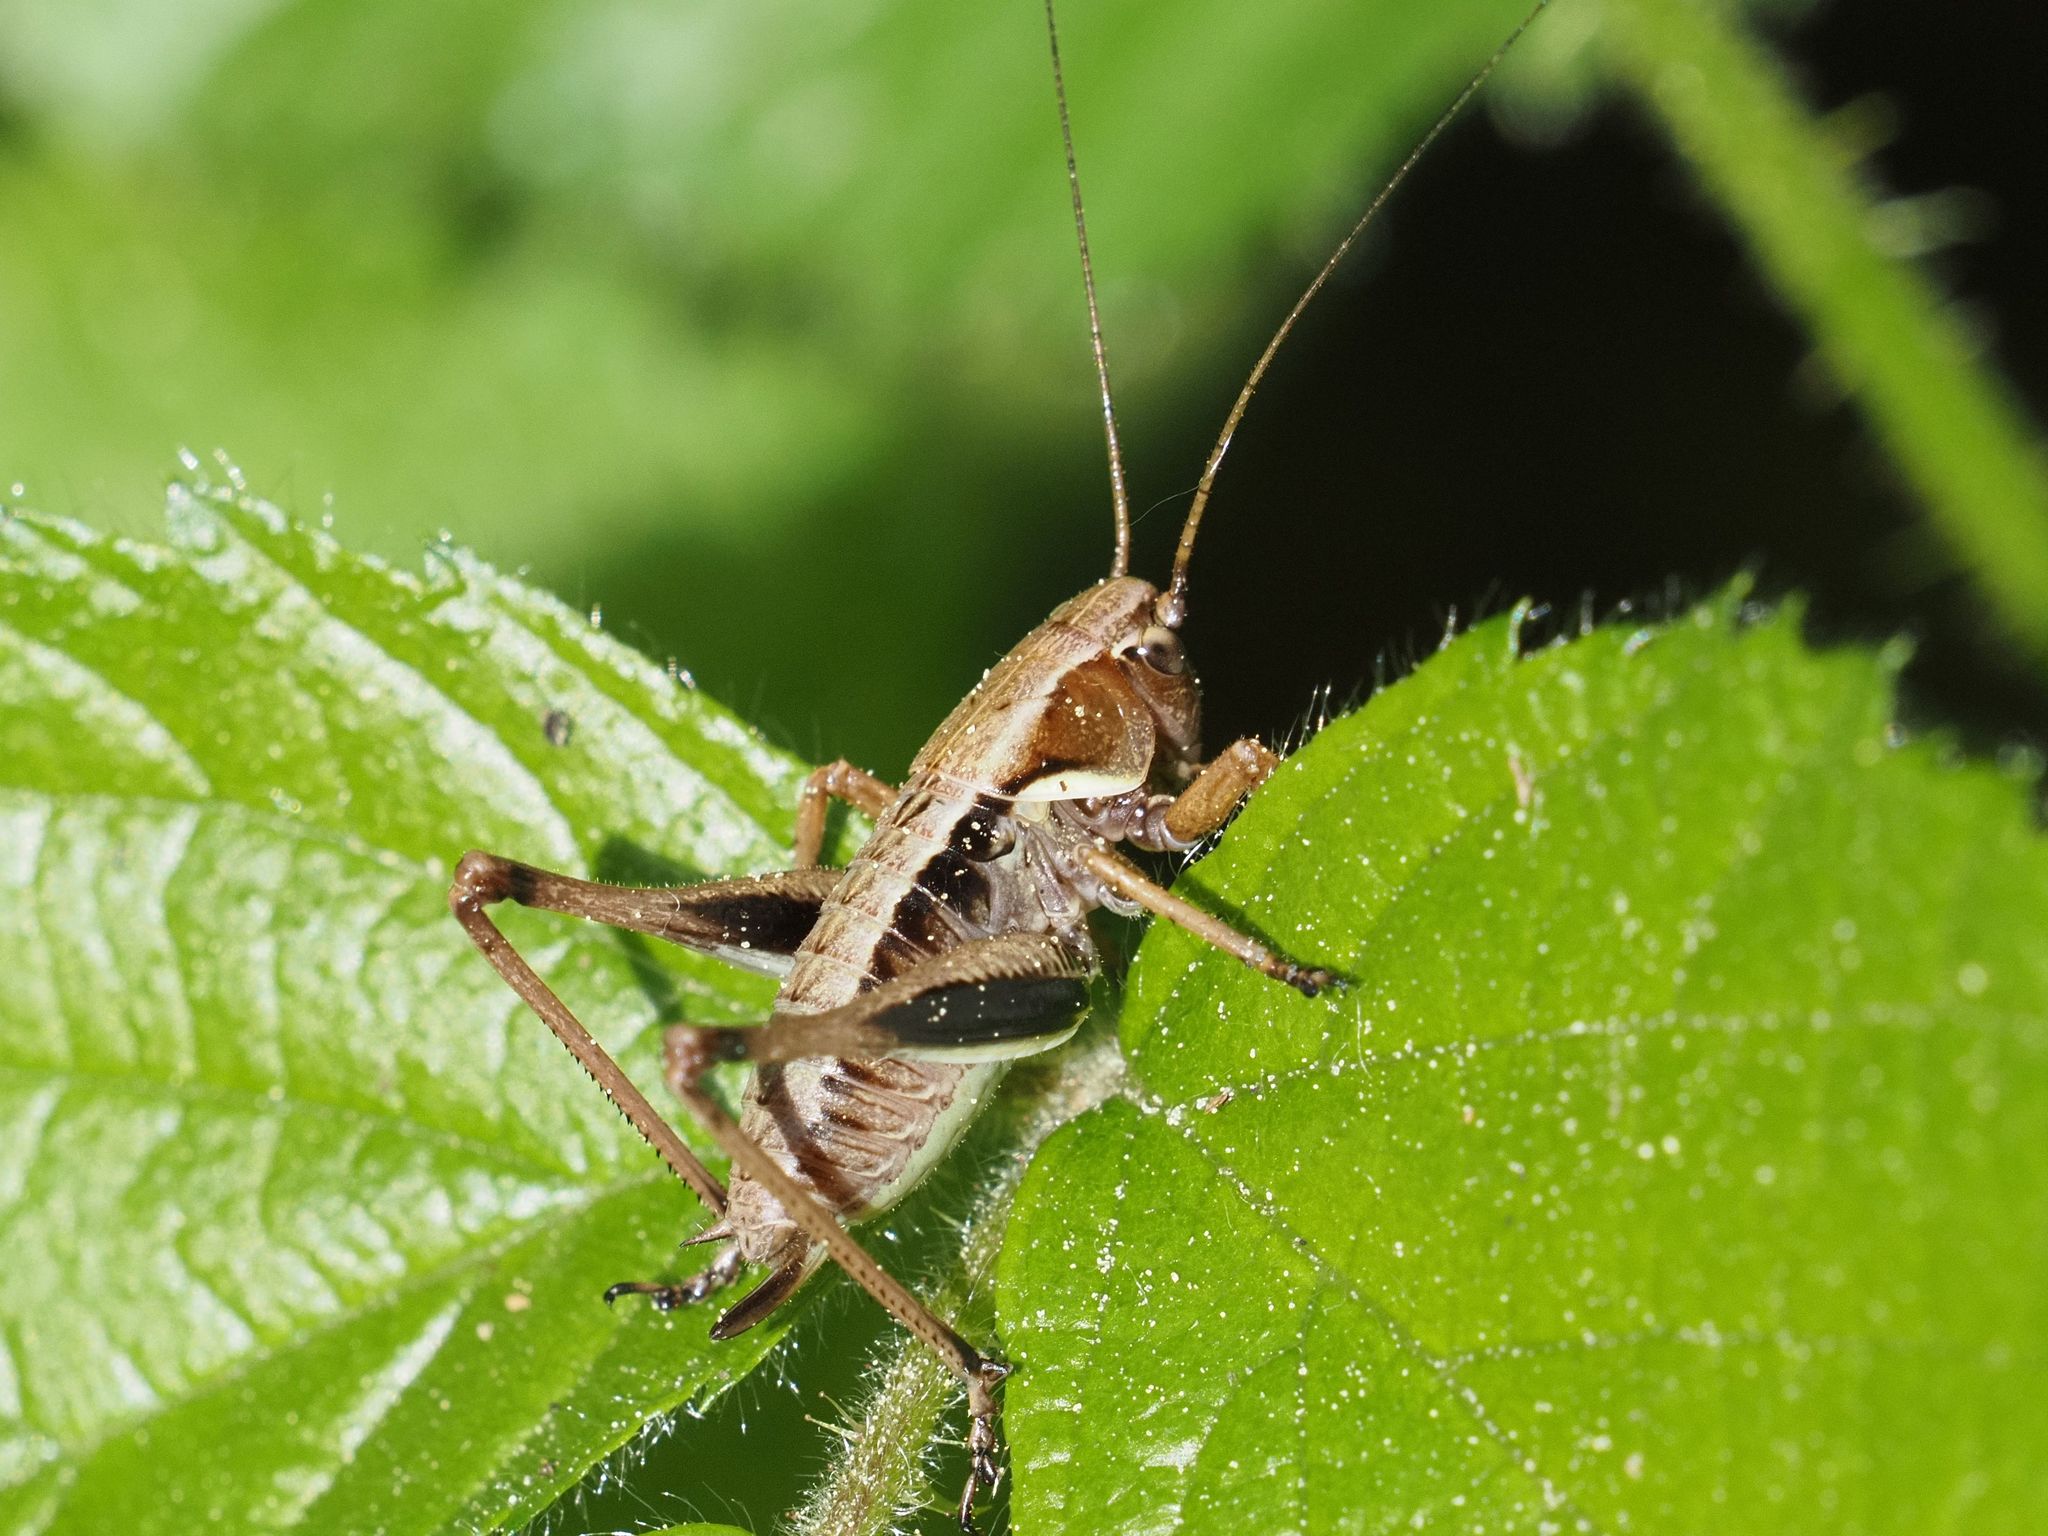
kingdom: Animalia
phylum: Arthropoda
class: Insecta
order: Orthoptera
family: Tettigoniidae
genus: Pholidoptera
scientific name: Pholidoptera aptera
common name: Alpine dark bush-cricket
